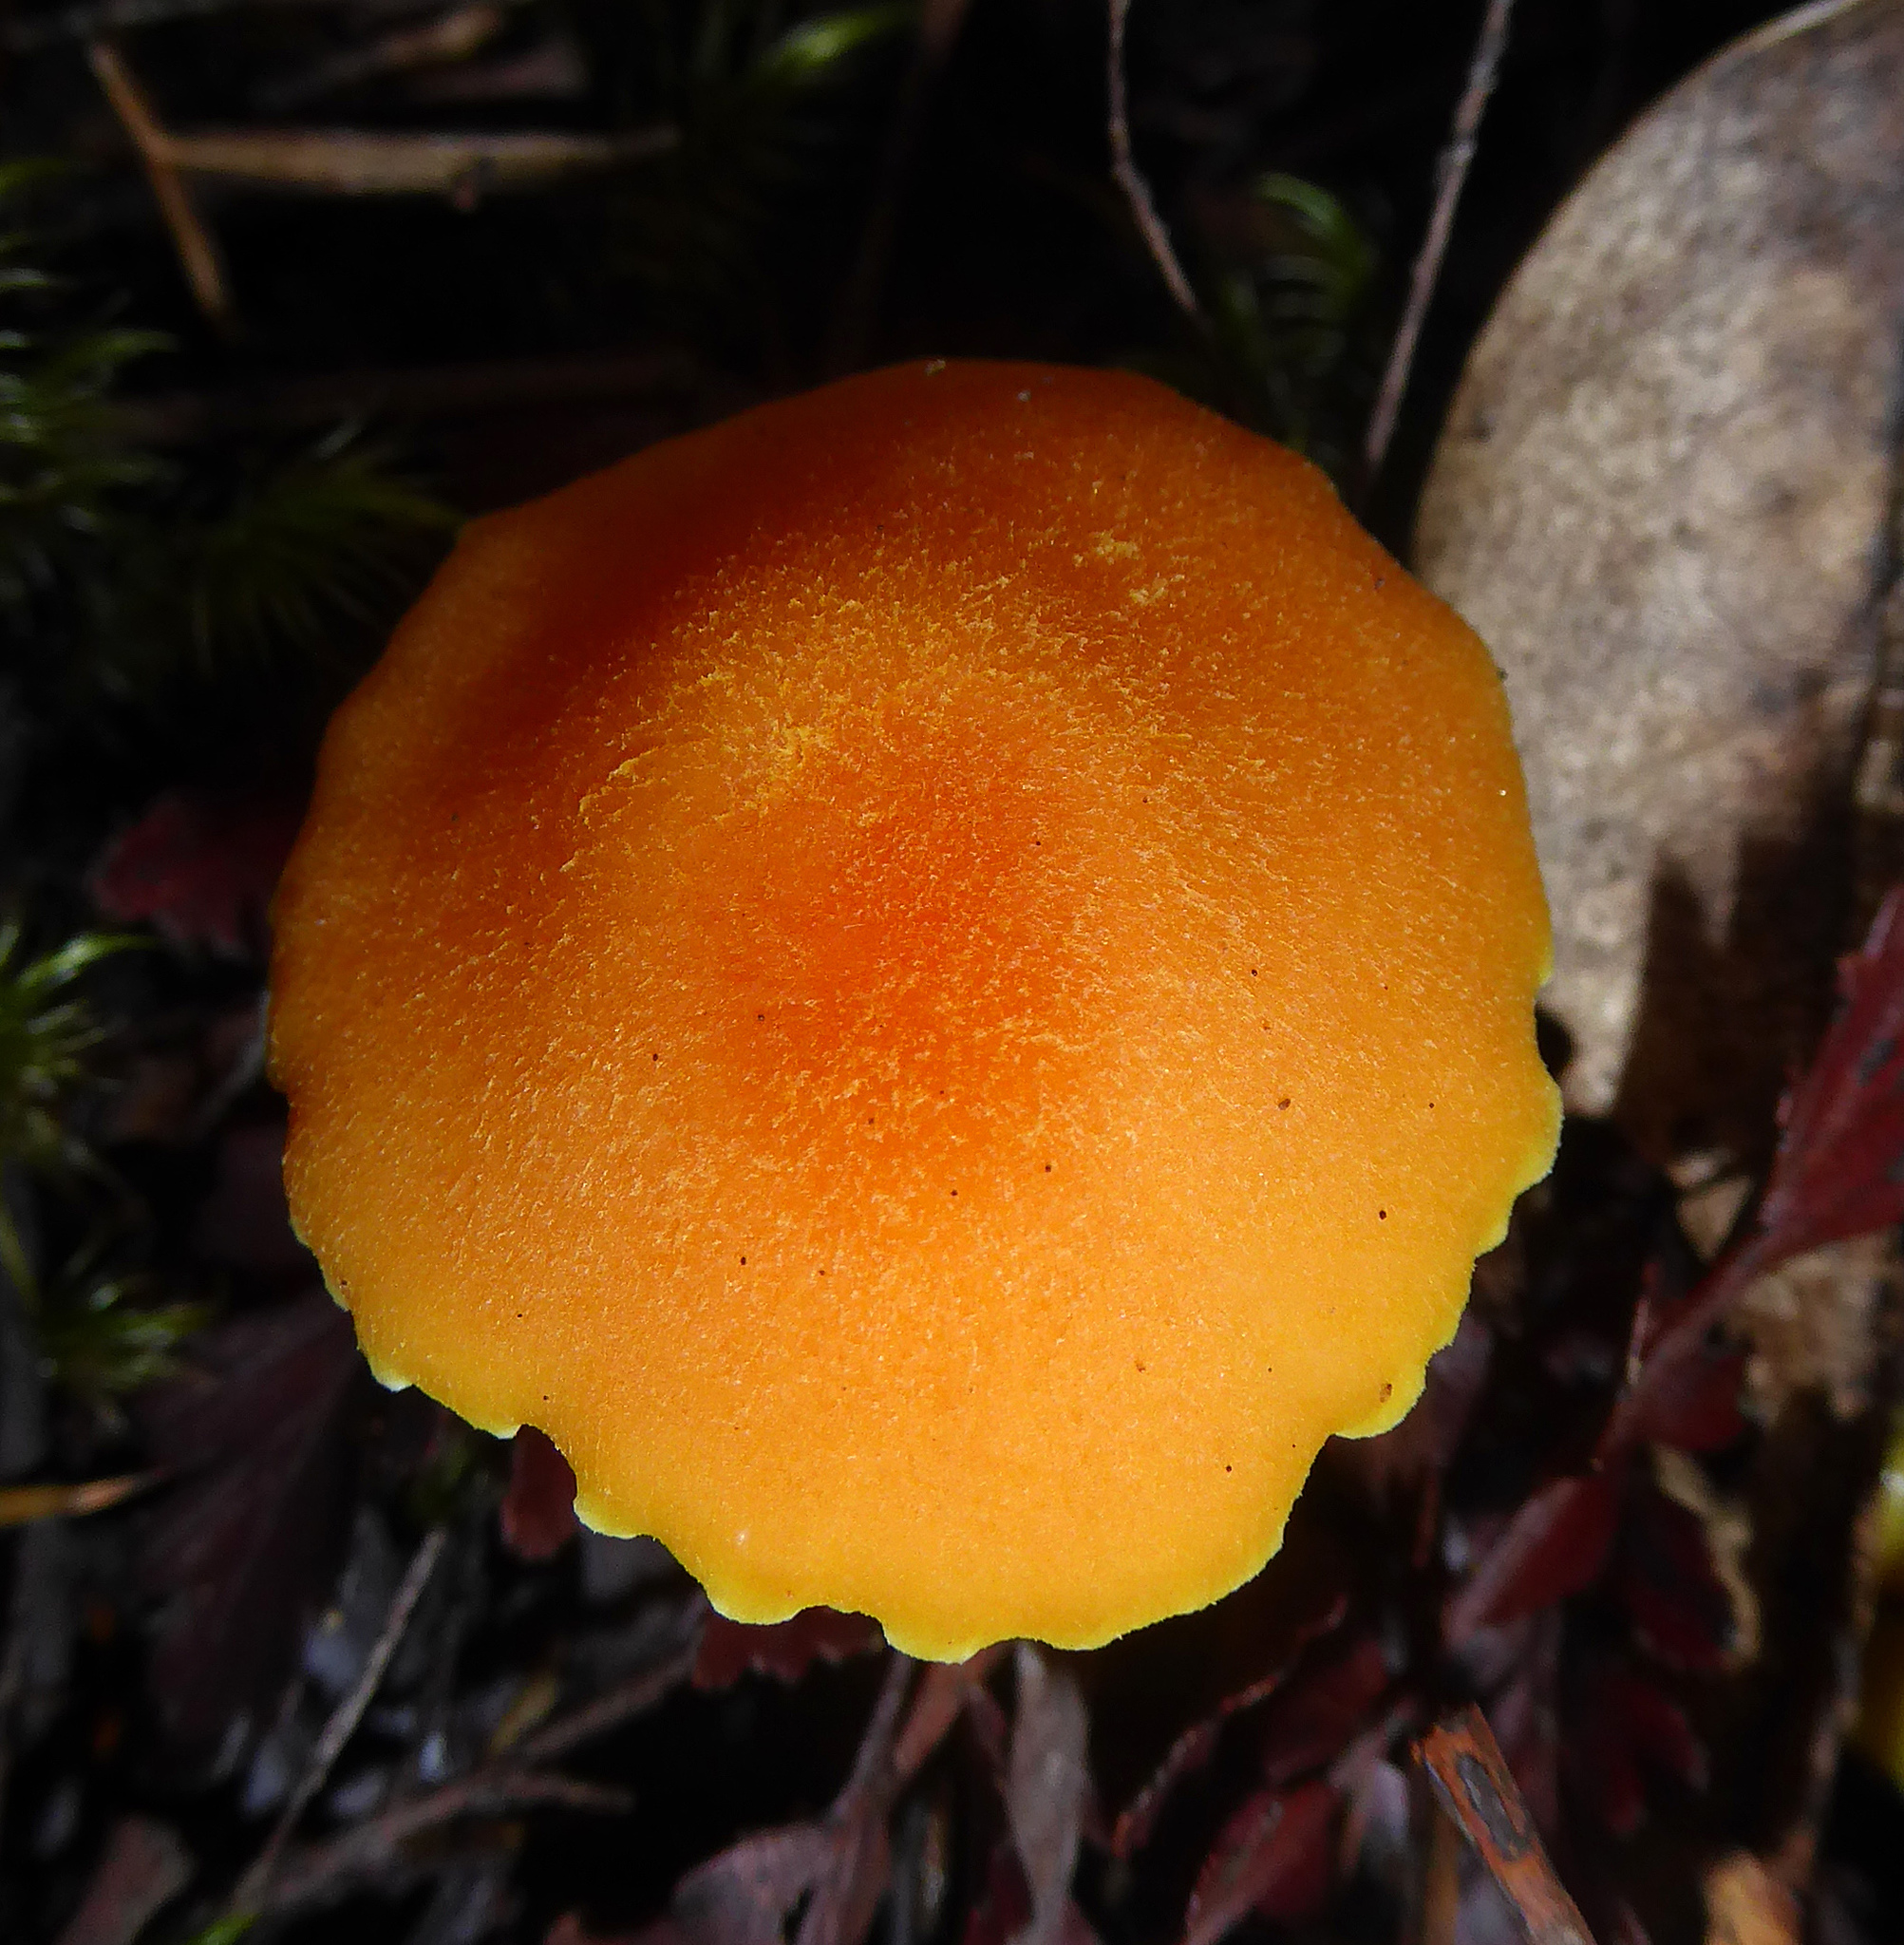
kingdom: Fungi
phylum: Basidiomycota
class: Agaricomycetes
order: Agaricales
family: Hygrophoraceae
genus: Hygrocybe
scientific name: Hygrocybe elegans
